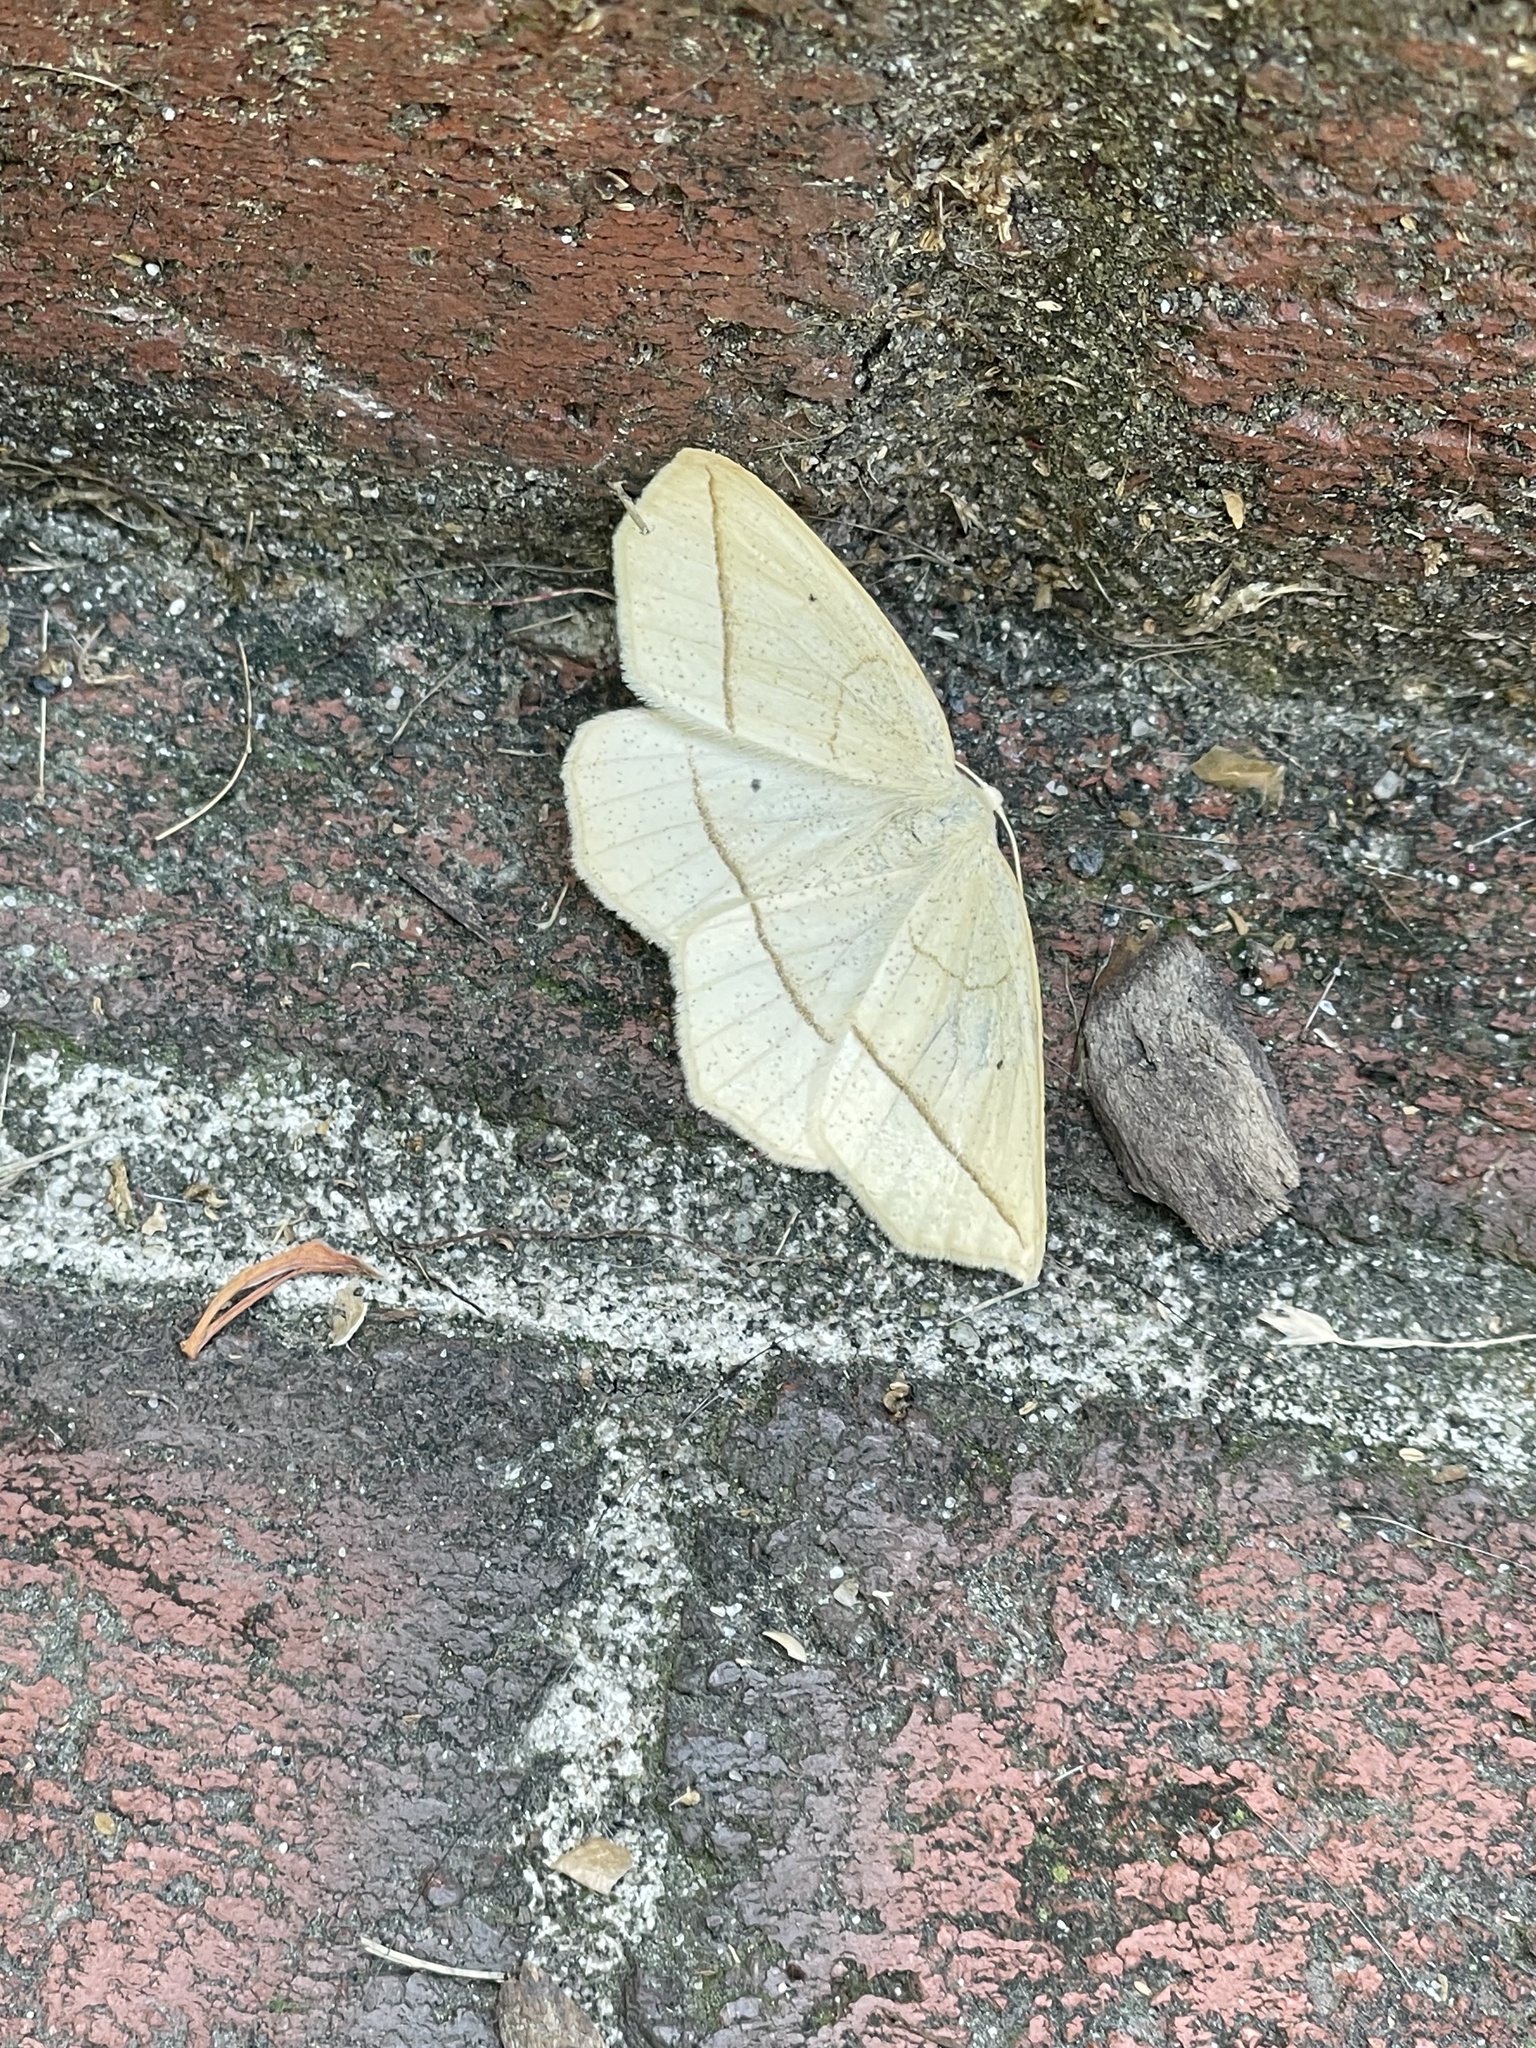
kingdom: Animalia
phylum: Arthropoda
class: Insecta
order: Lepidoptera
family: Geometridae
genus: Eusarca
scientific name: Eusarca confusaria
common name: Confused eusarca
